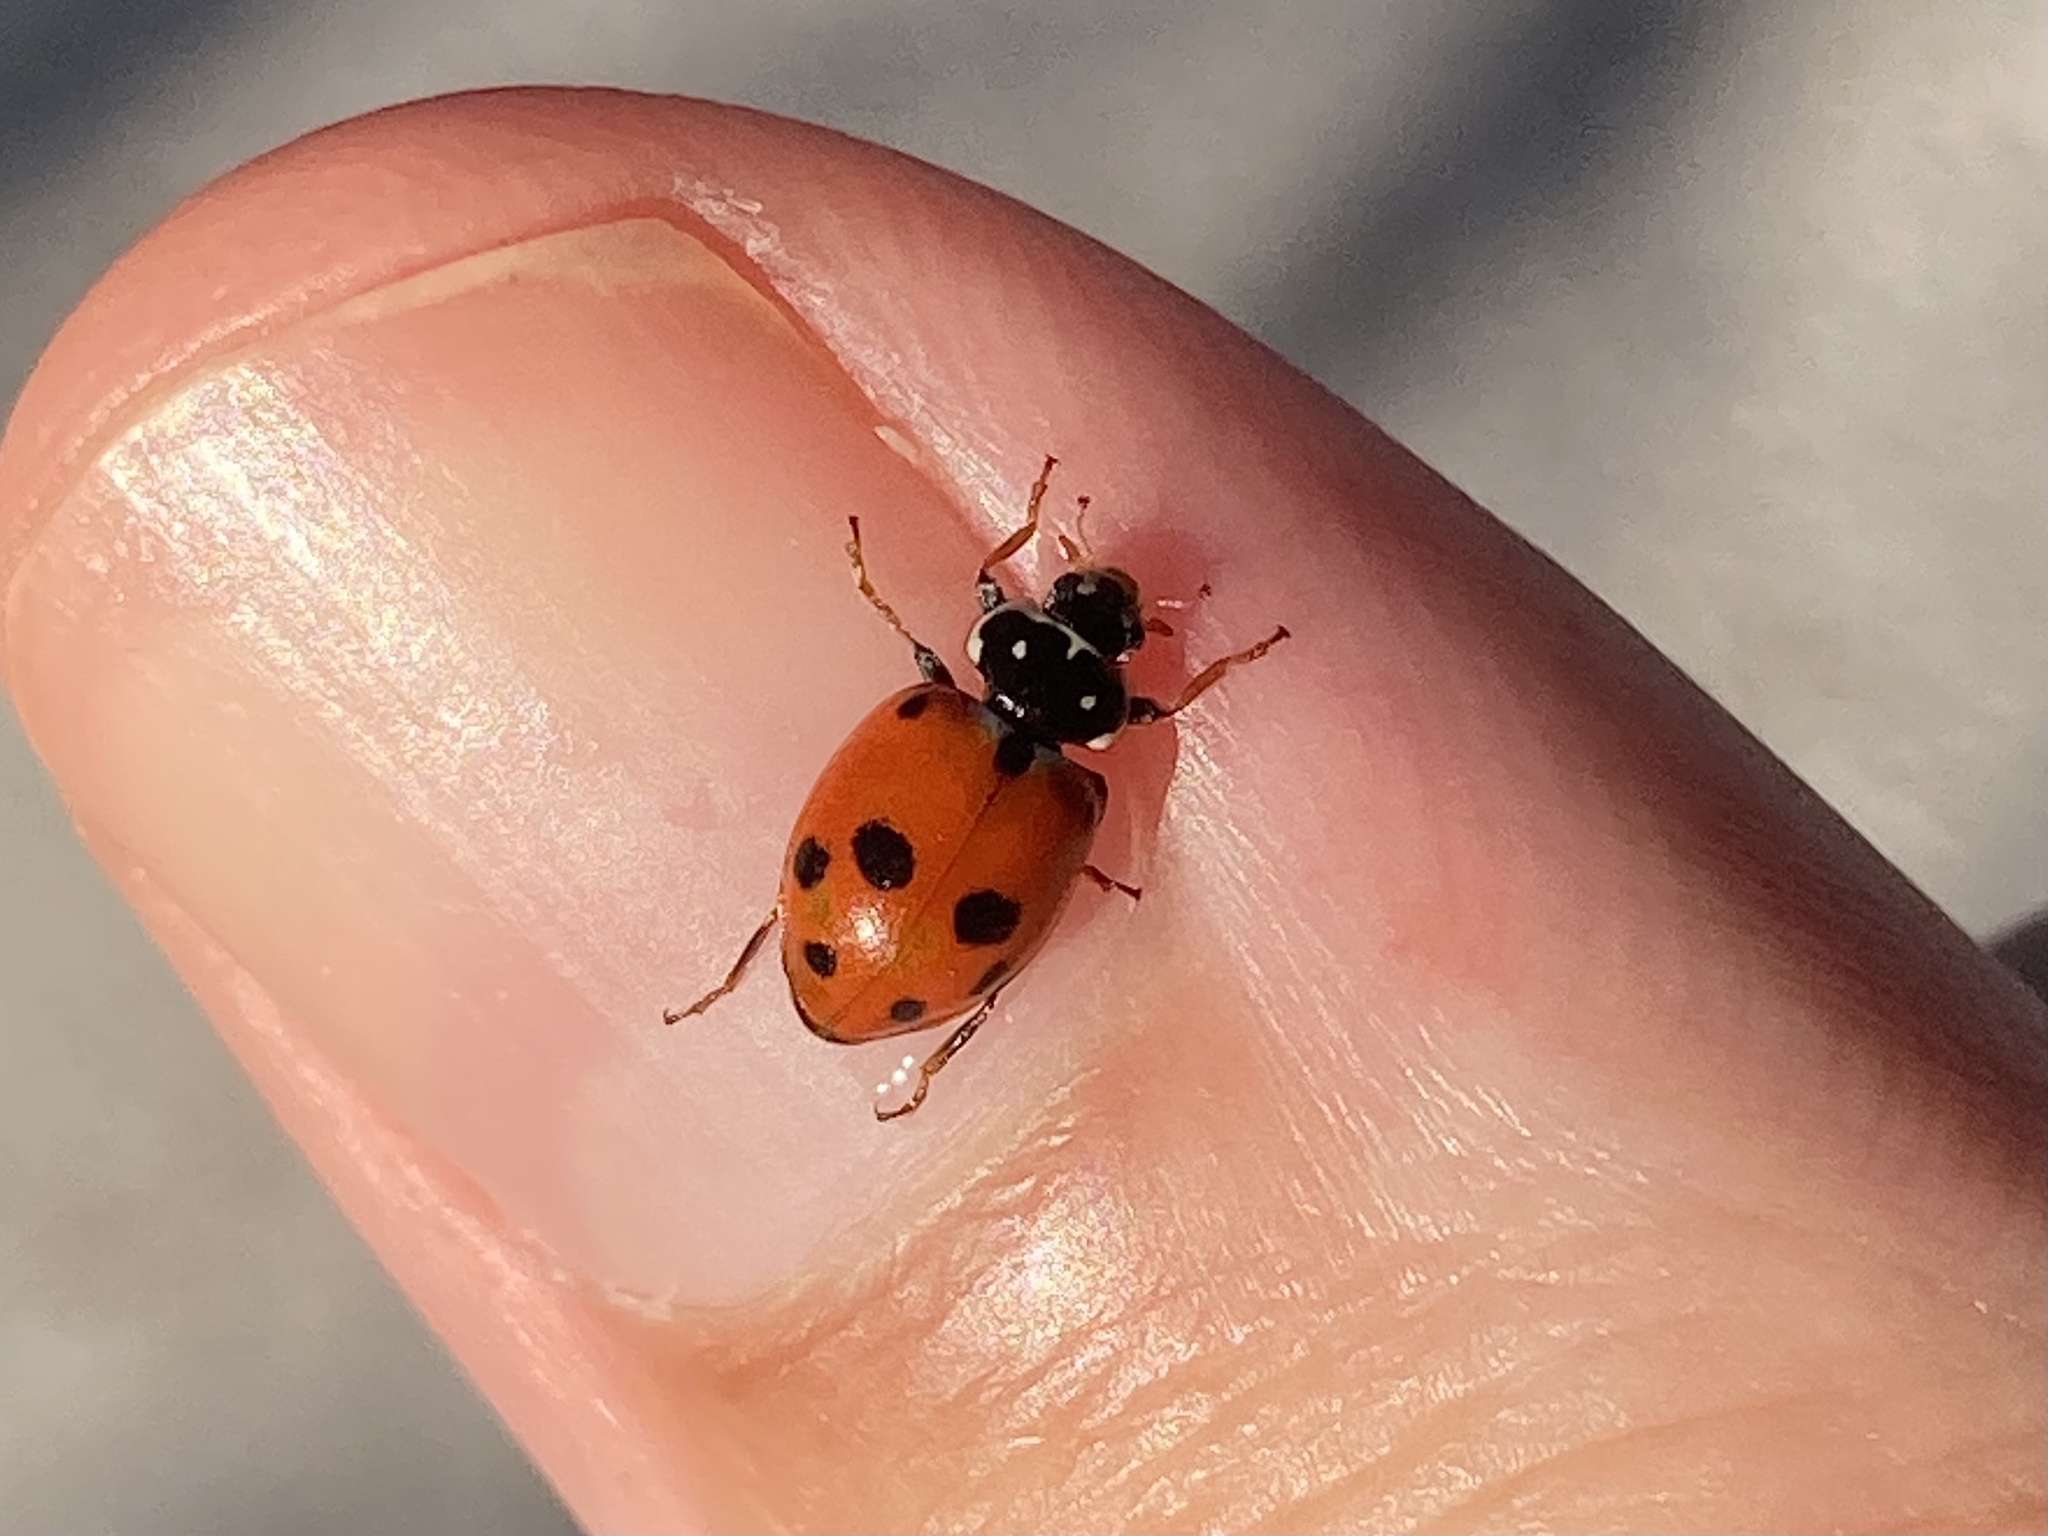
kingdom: Animalia
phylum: Arthropoda
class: Insecta
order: Coleoptera
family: Coccinellidae
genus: Hippodamia
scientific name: Hippodamia variegata
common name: Ladybird beetle
